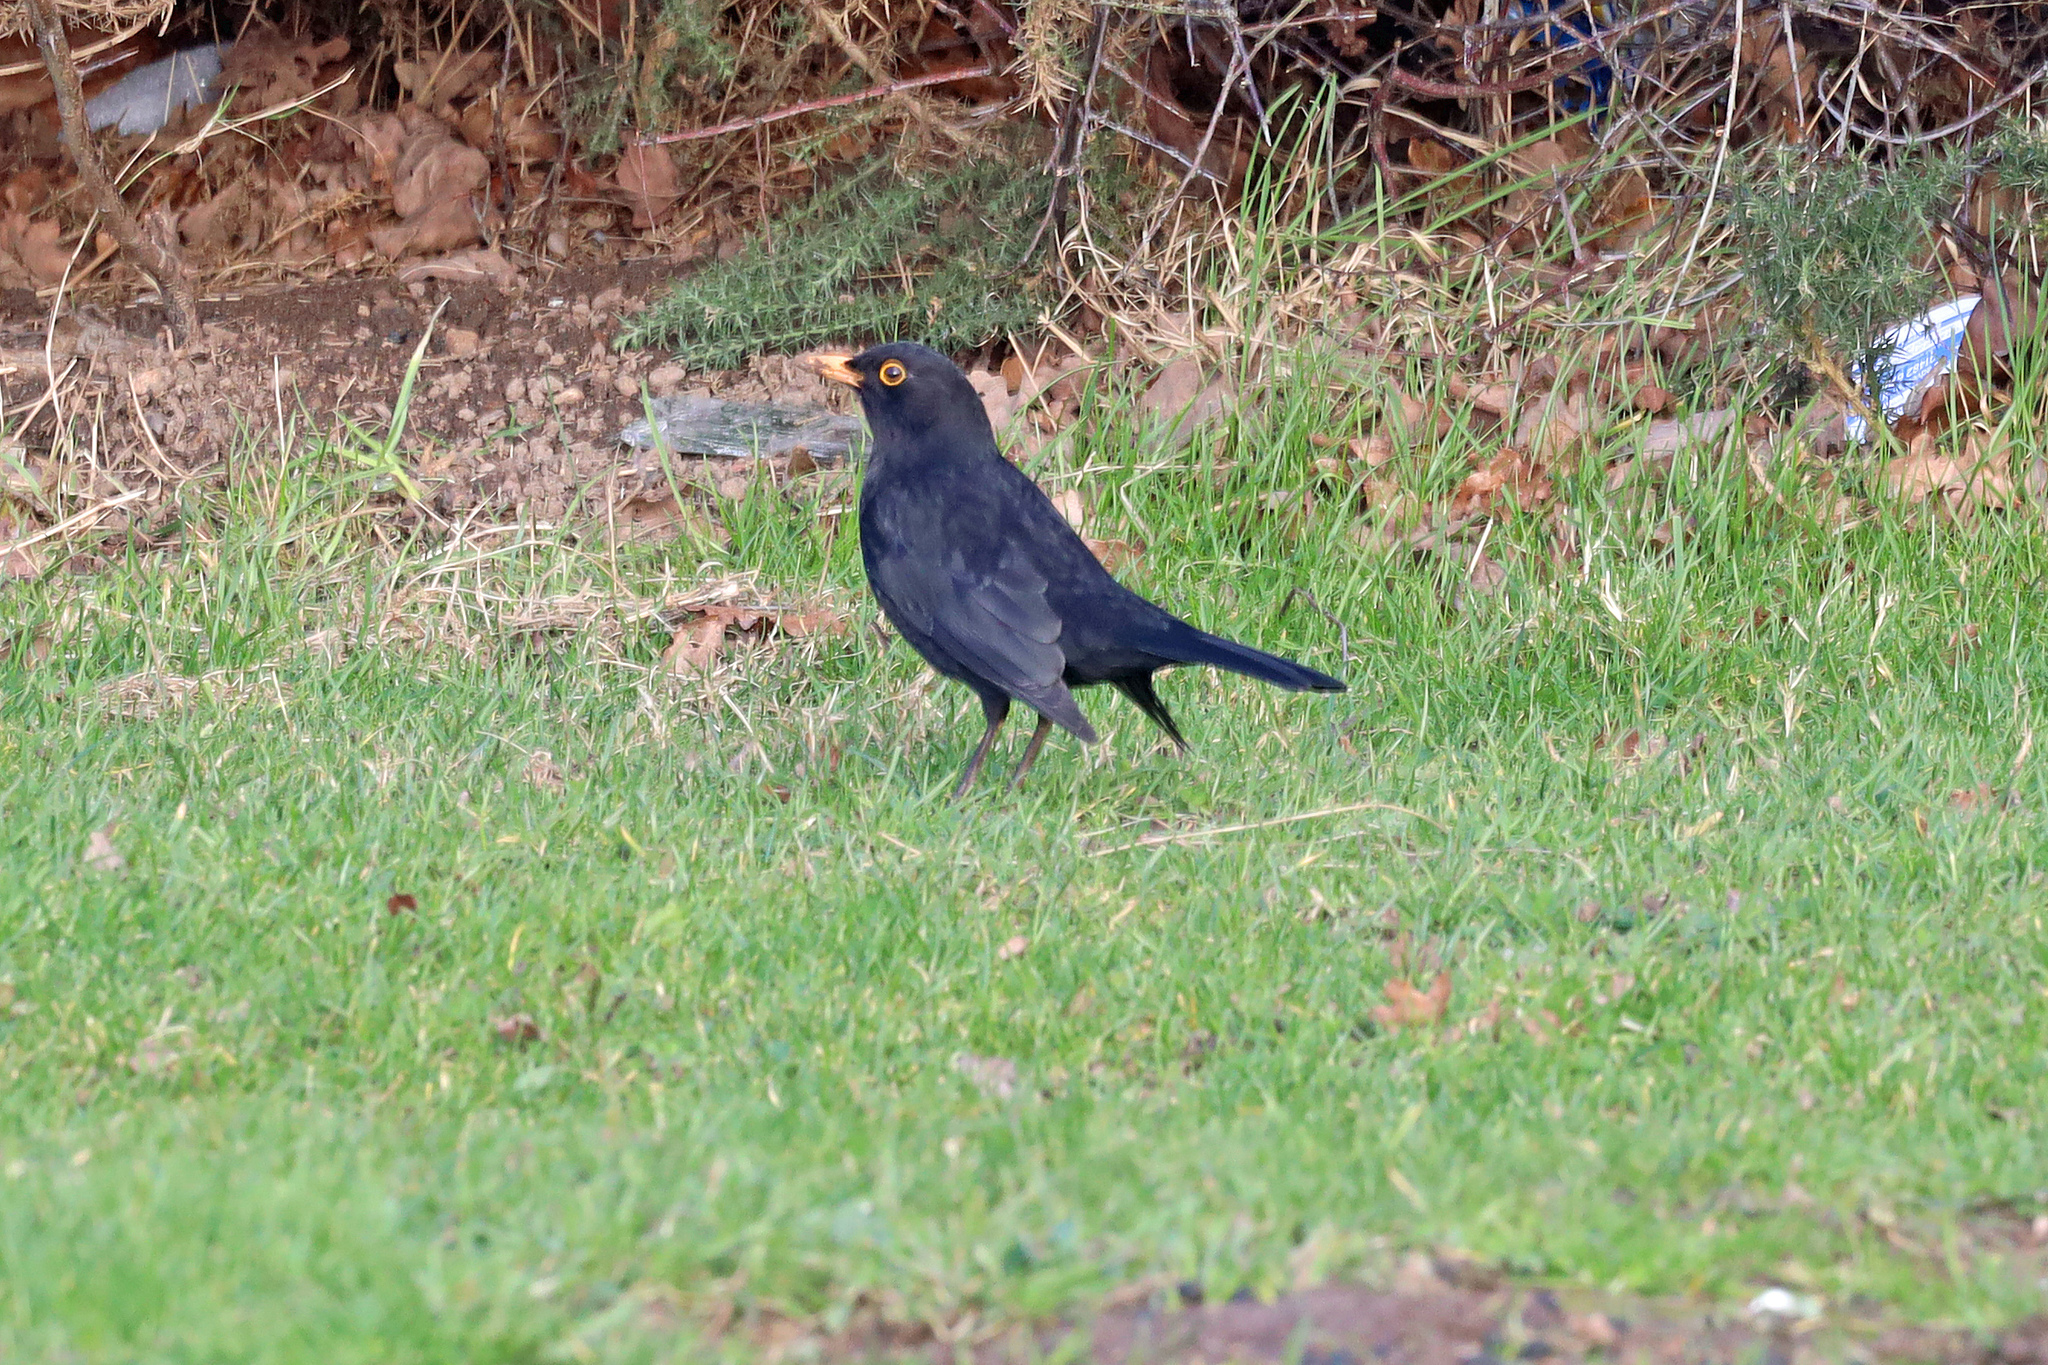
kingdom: Animalia
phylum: Chordata
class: Aves
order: Passeriformes
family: Turdidae
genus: Turdus
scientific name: Turdus merula
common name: Common blackbird
